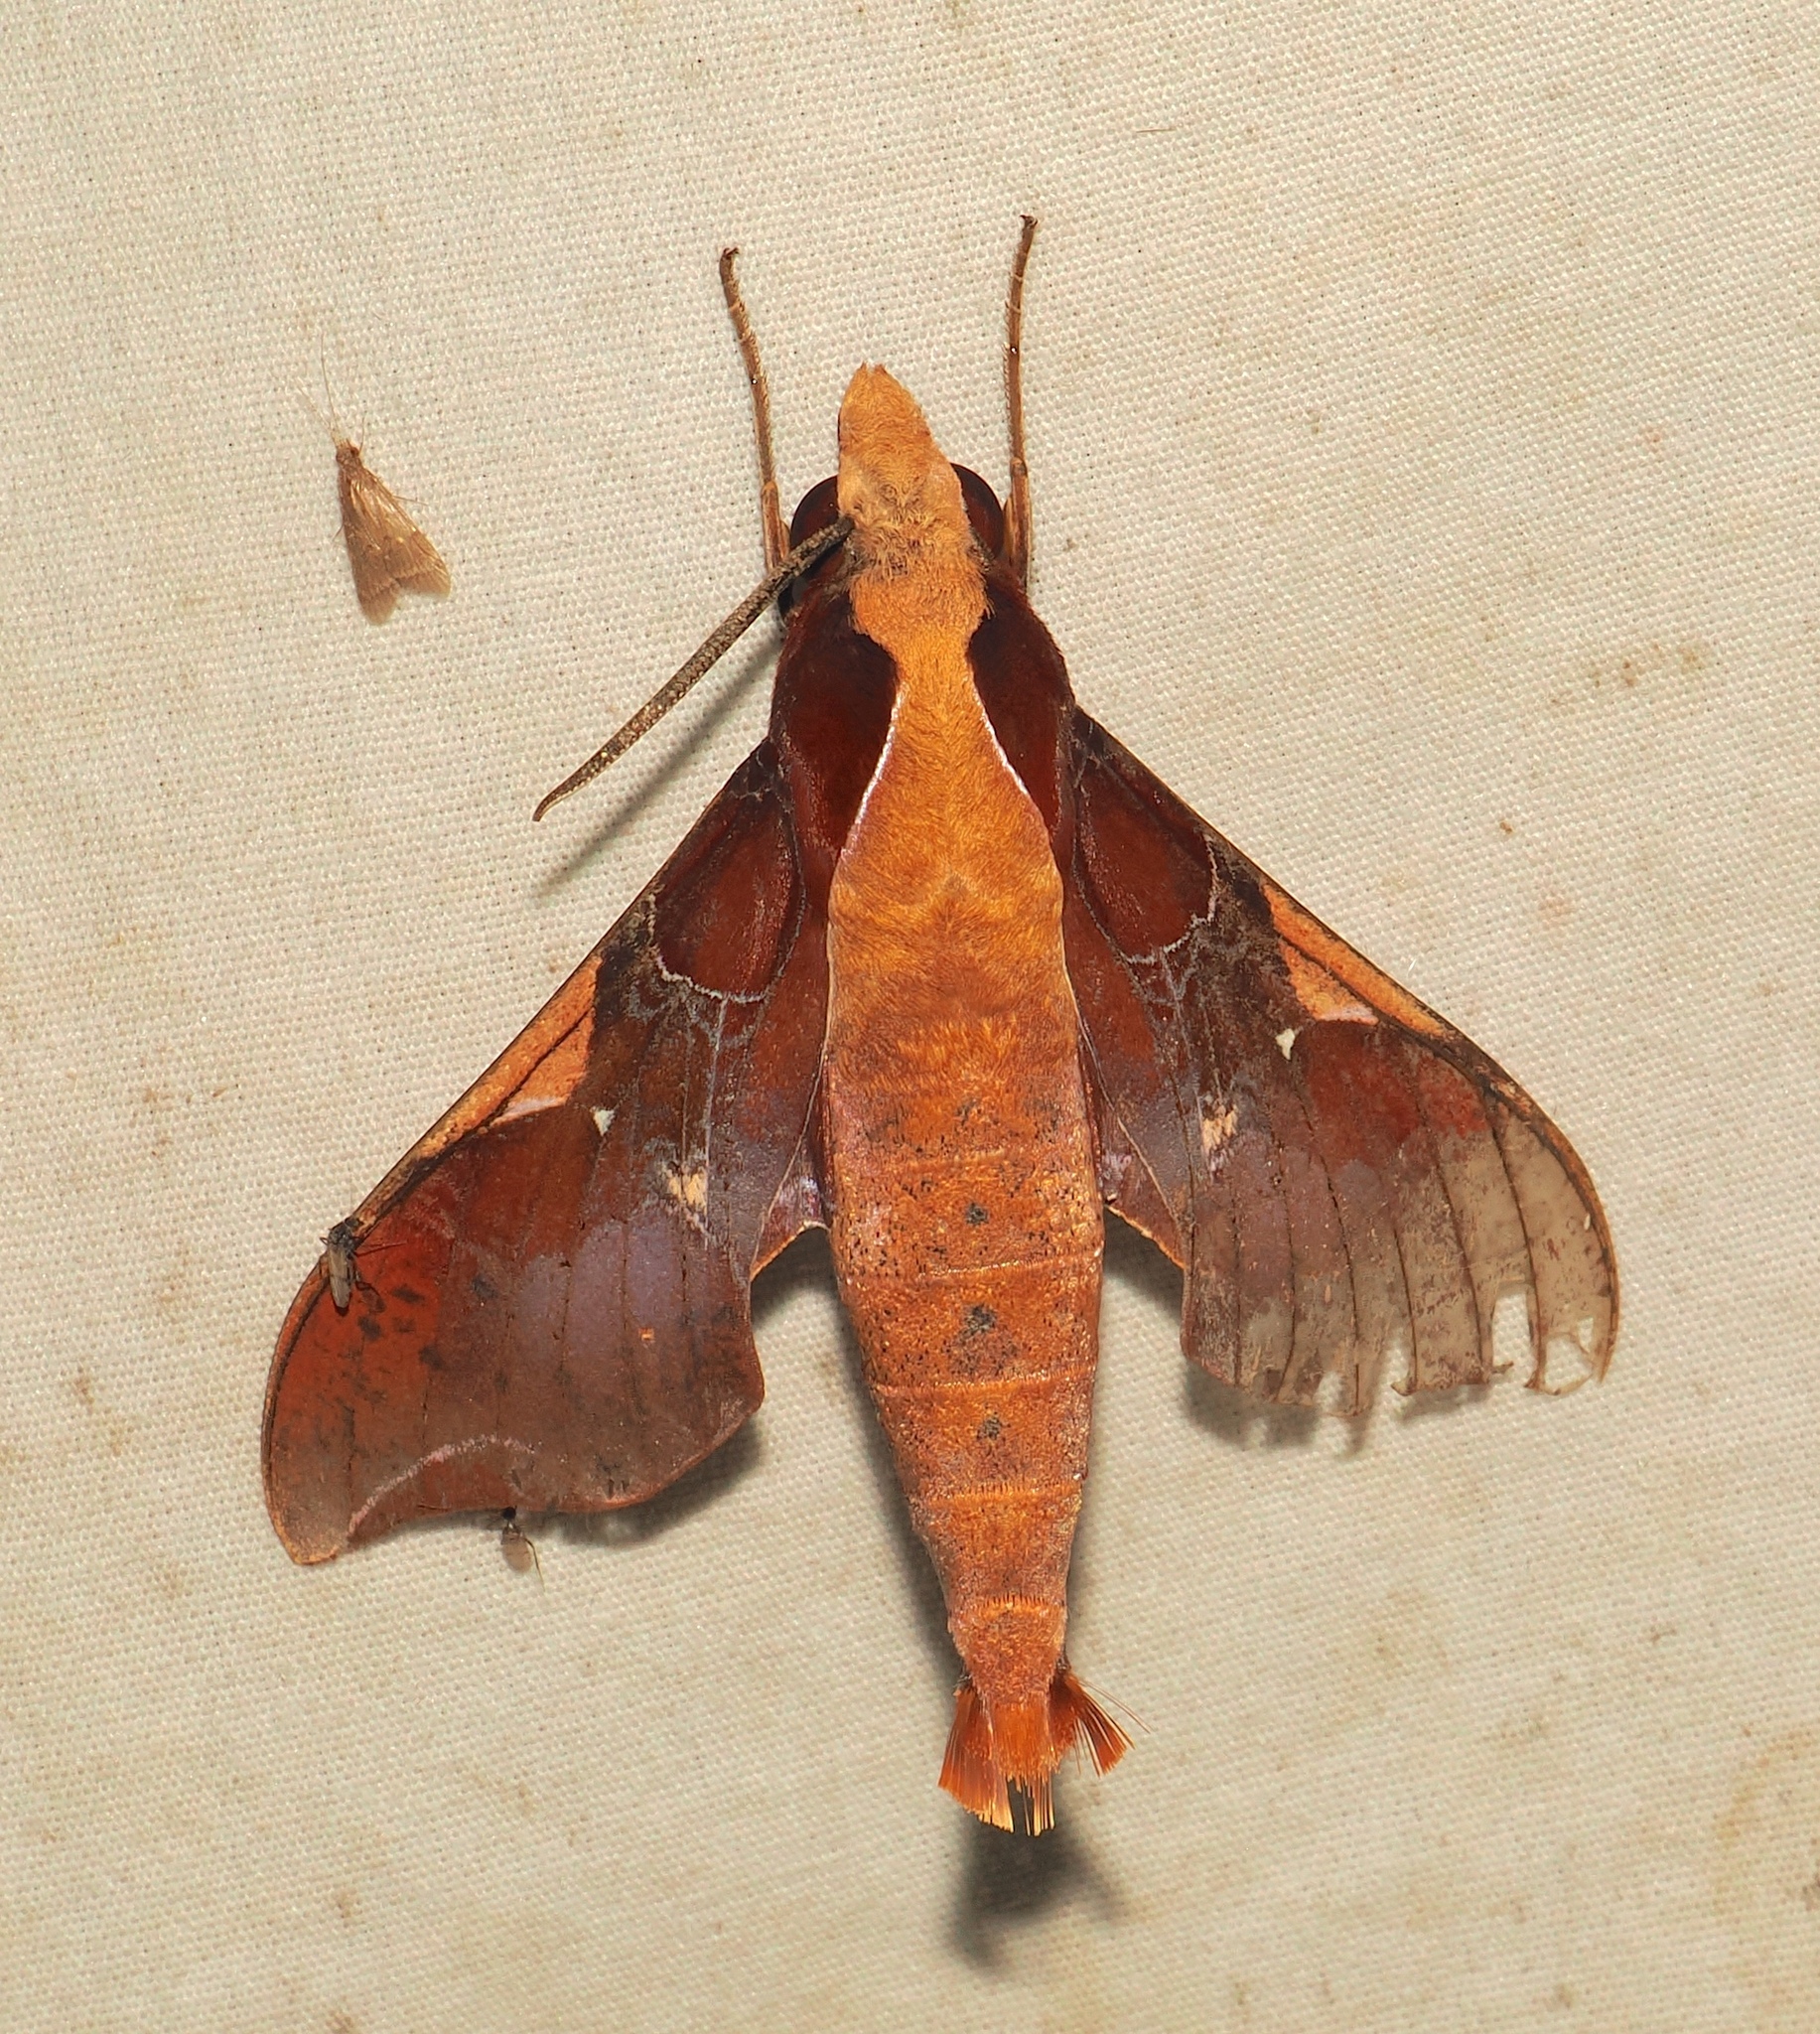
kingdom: Animalia
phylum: Arthropoda
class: Insecta
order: Lepidoptera
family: Sphingidae
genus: Callionima
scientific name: Callionima nomius
